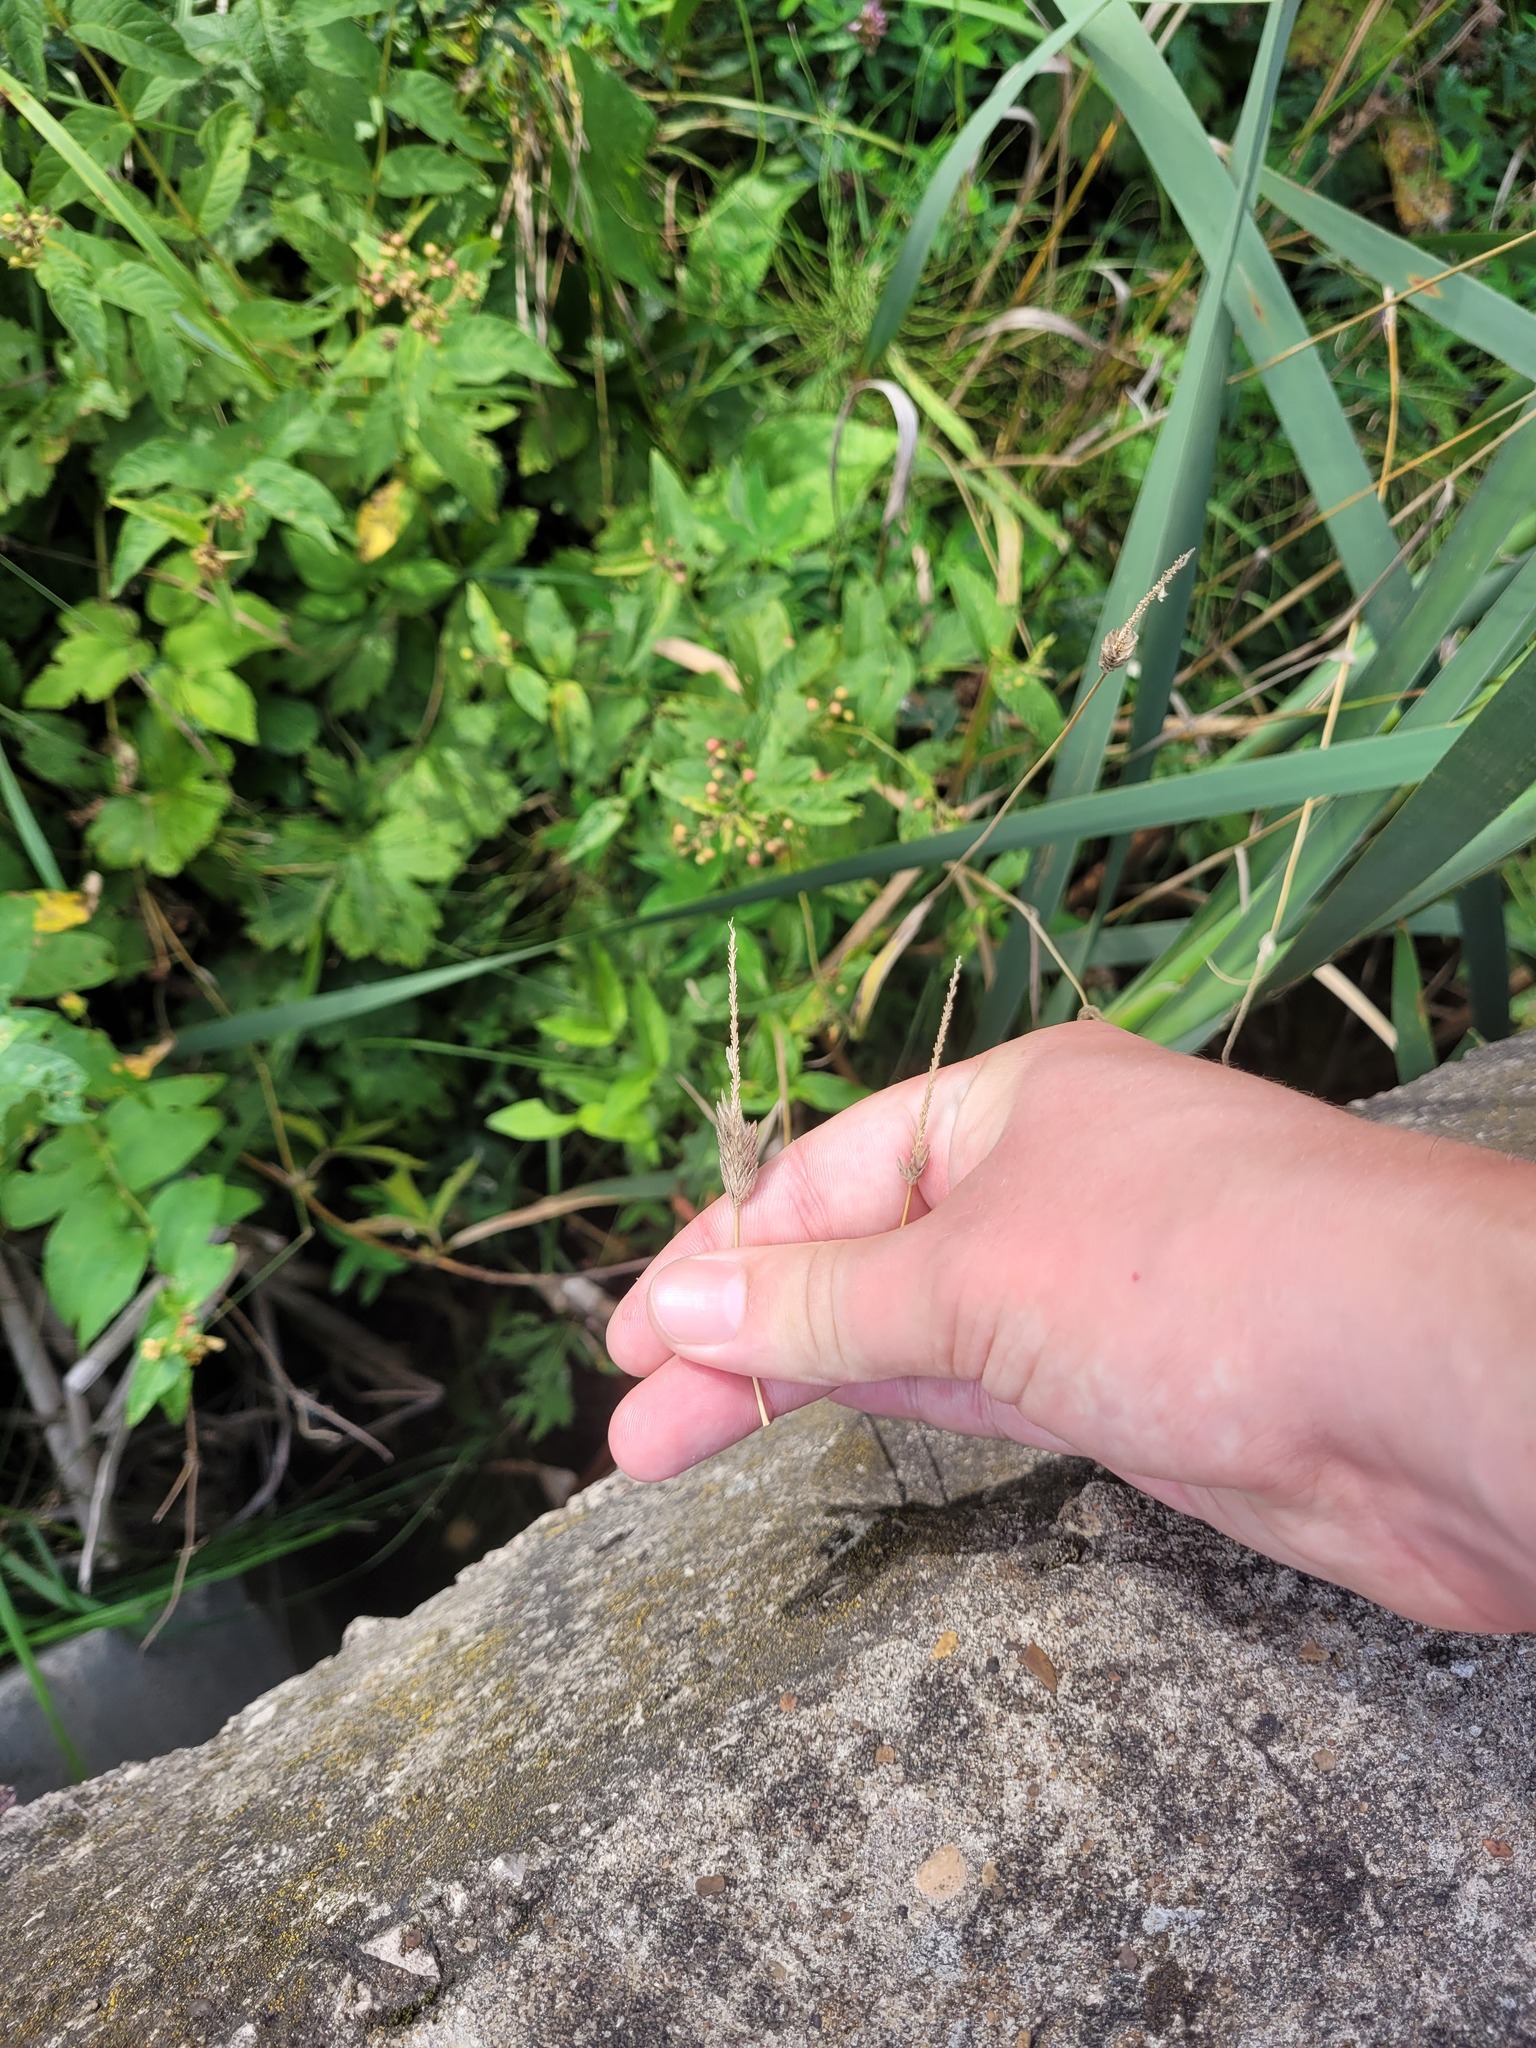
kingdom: Plantae
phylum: Tracheophyta
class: Liliopsida
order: Poales
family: Poaceae
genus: Alopecurus
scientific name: Alopecurus pratensis
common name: Meadow foxtail
